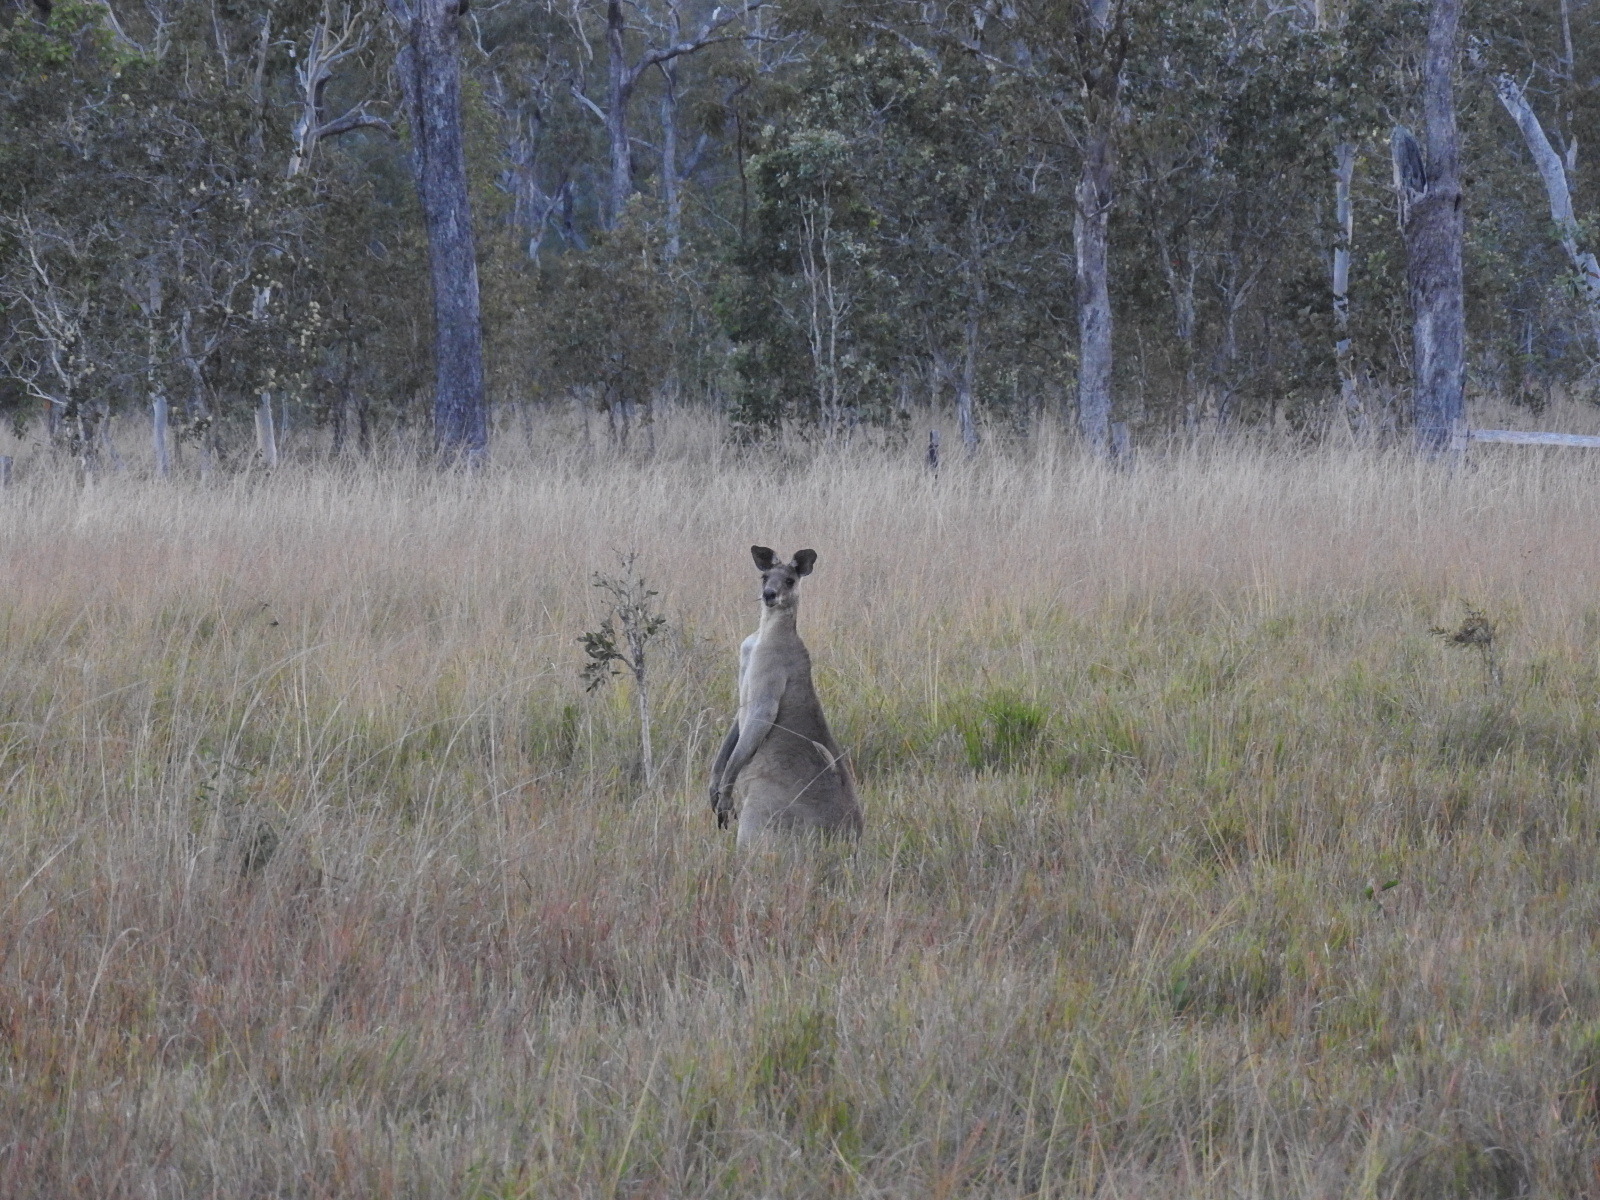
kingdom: Animalia
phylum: Chordata
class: Mammalia
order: Diprotodontia
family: Macropodidae
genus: Macropus
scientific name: Macropus giganteus
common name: Eastern grey kangaroo
